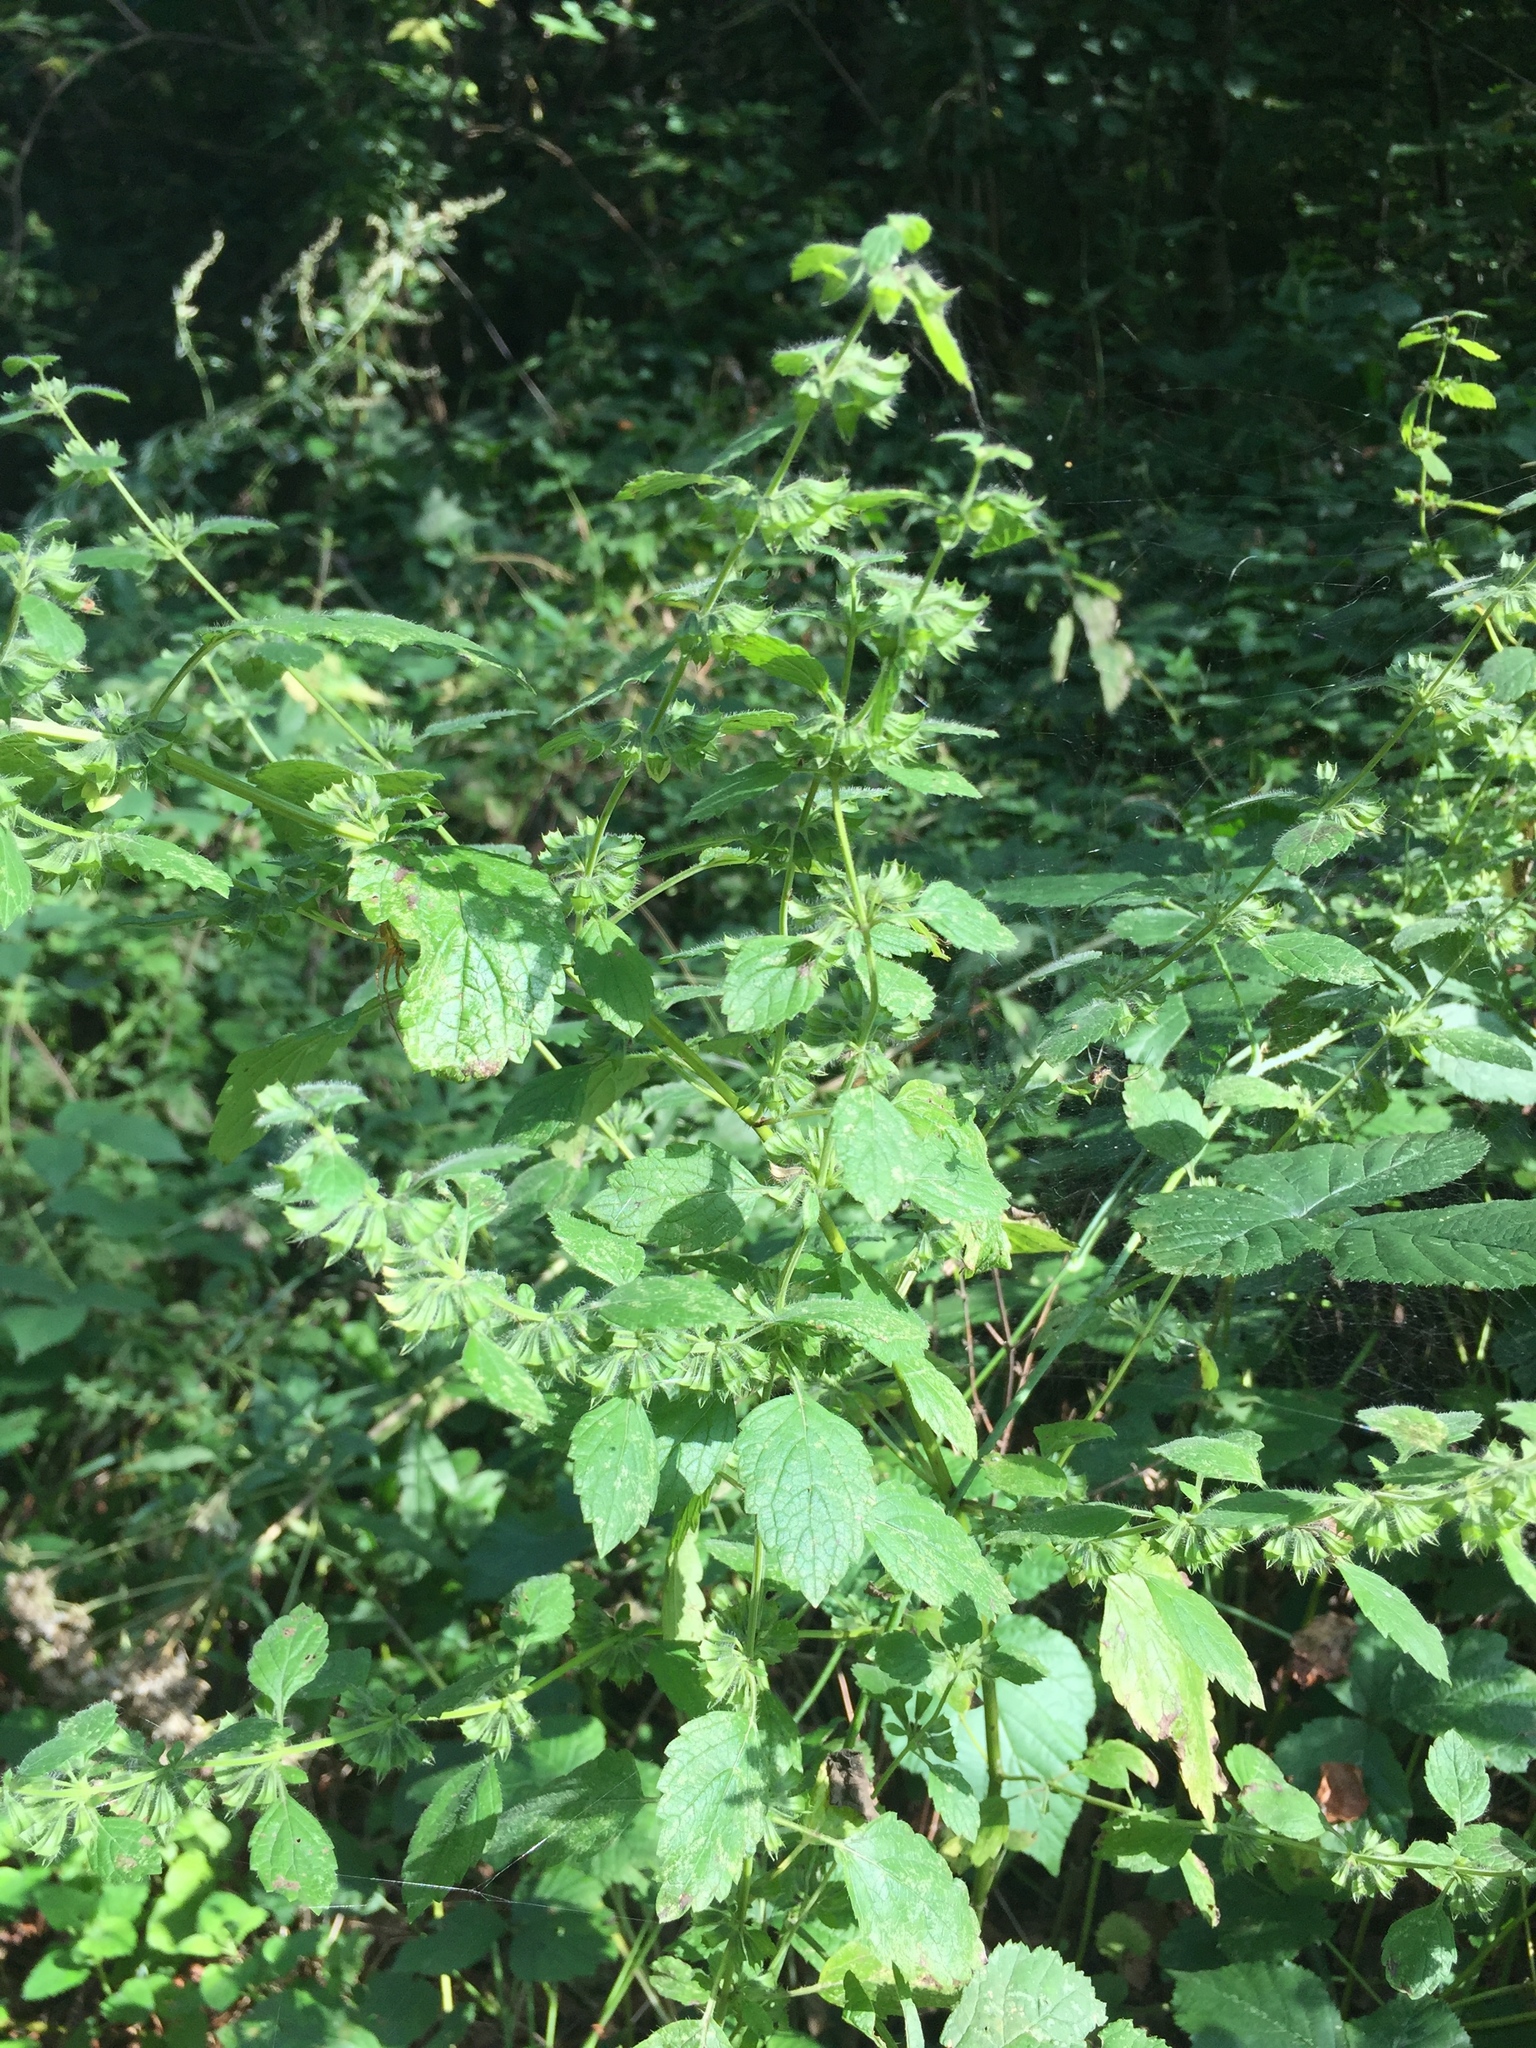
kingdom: Plantae
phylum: Tracheophyta
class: Magnoliopsida
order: Lamiales
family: Lamiaceae
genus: Melissa
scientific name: Melissa officinalis
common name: Balm
